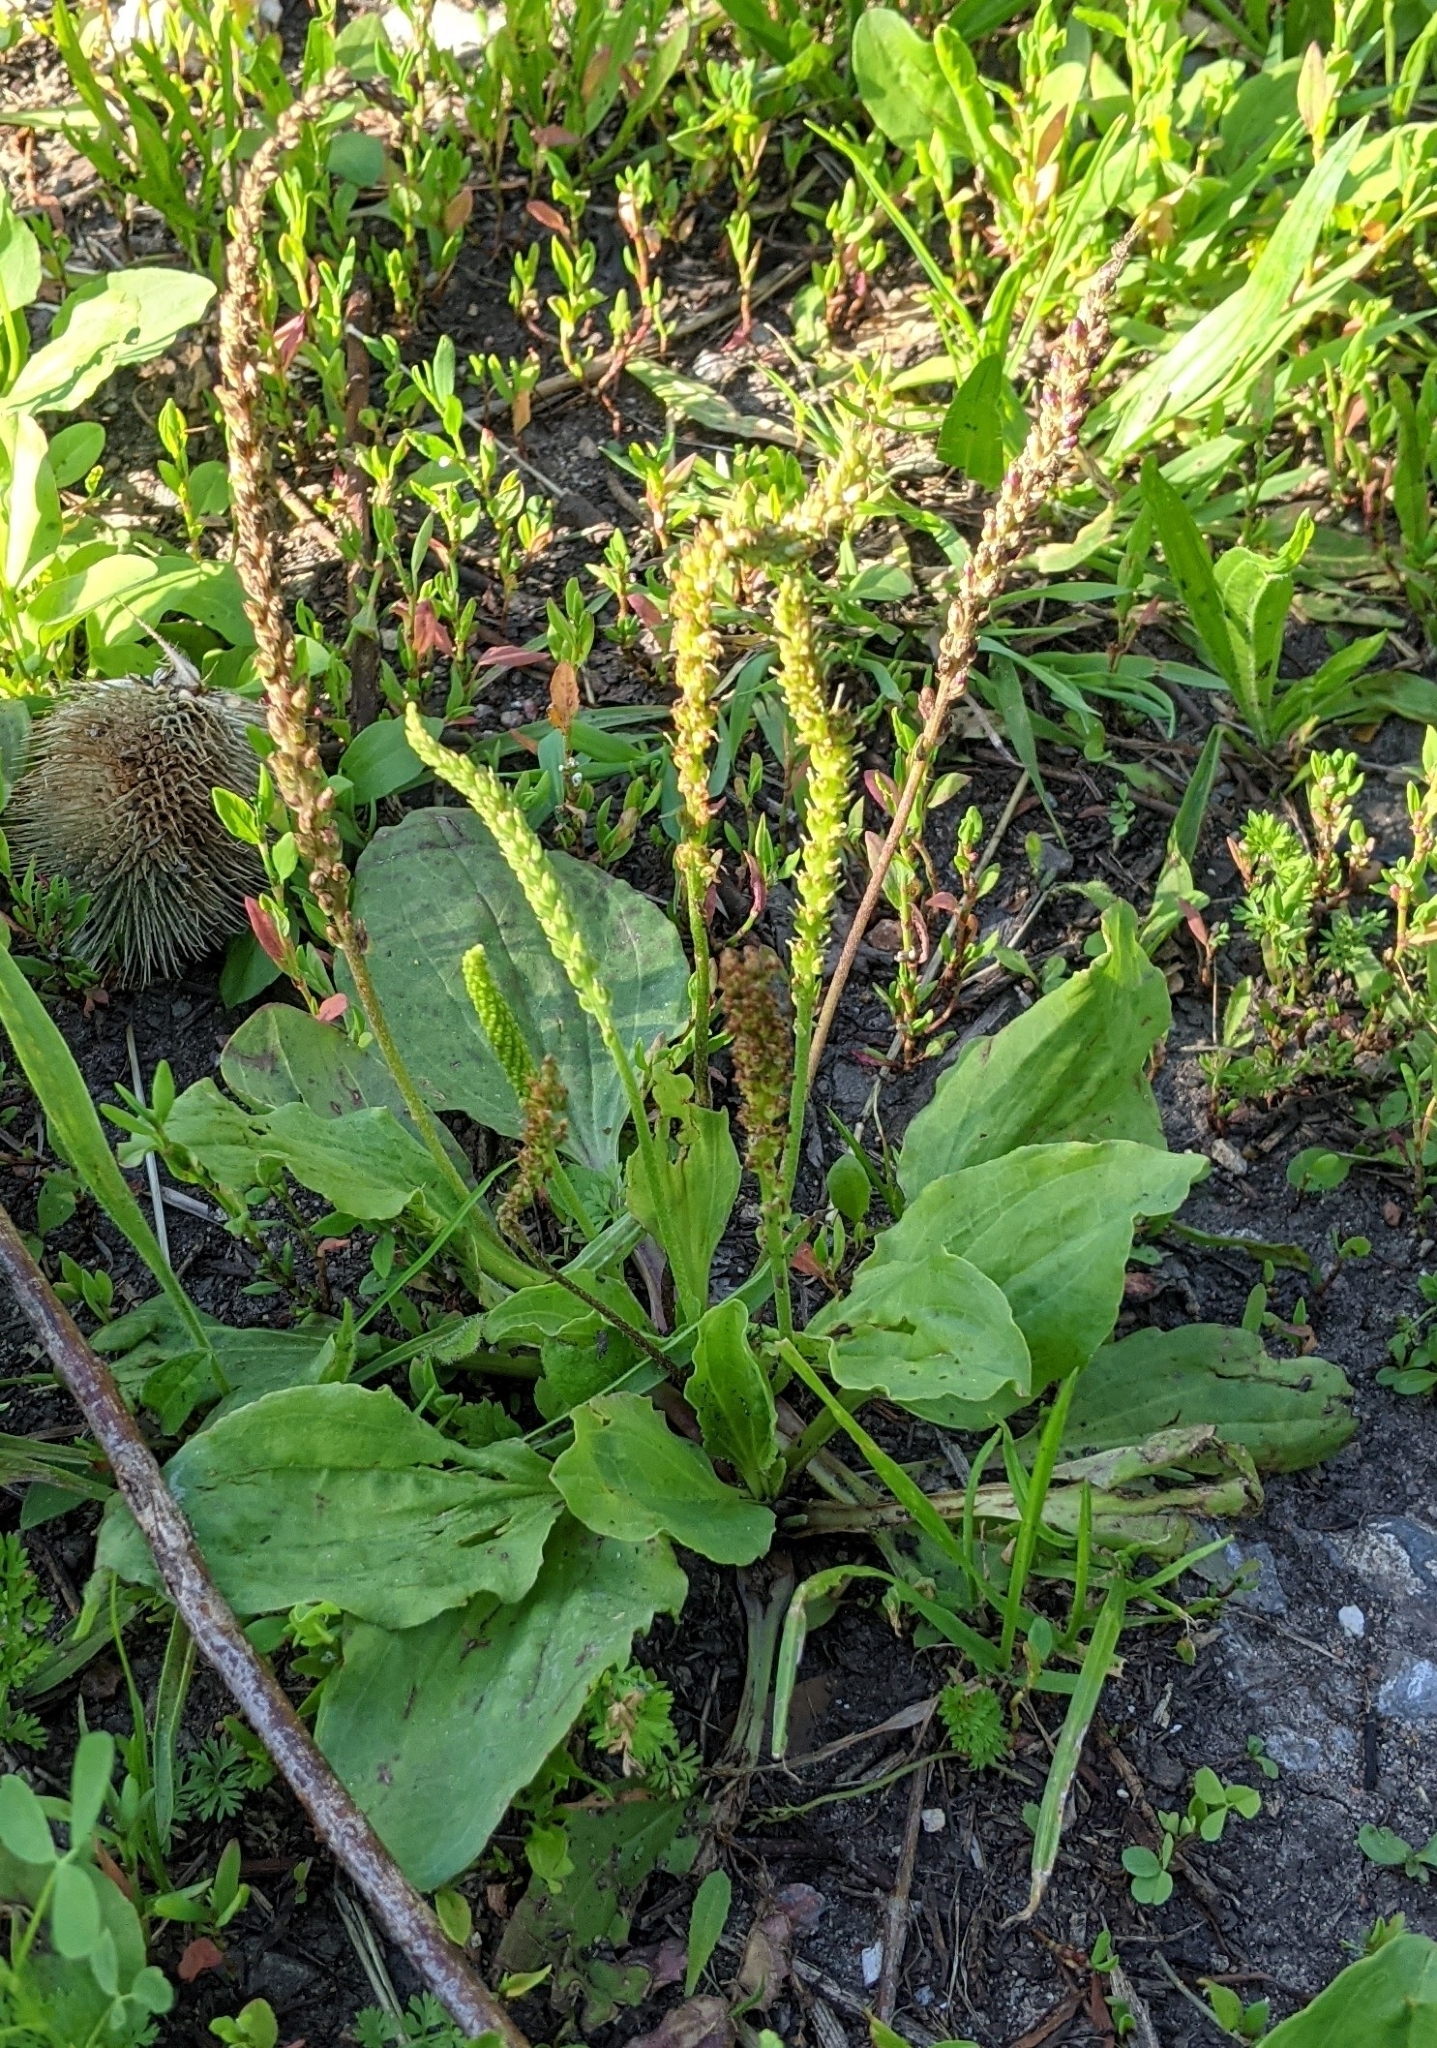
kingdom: Plantae
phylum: Tracheophyta
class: Magnoliopsida
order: Lamiales
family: Plantaginaceae
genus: Plantago
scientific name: Plantago major
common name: Common plantain
